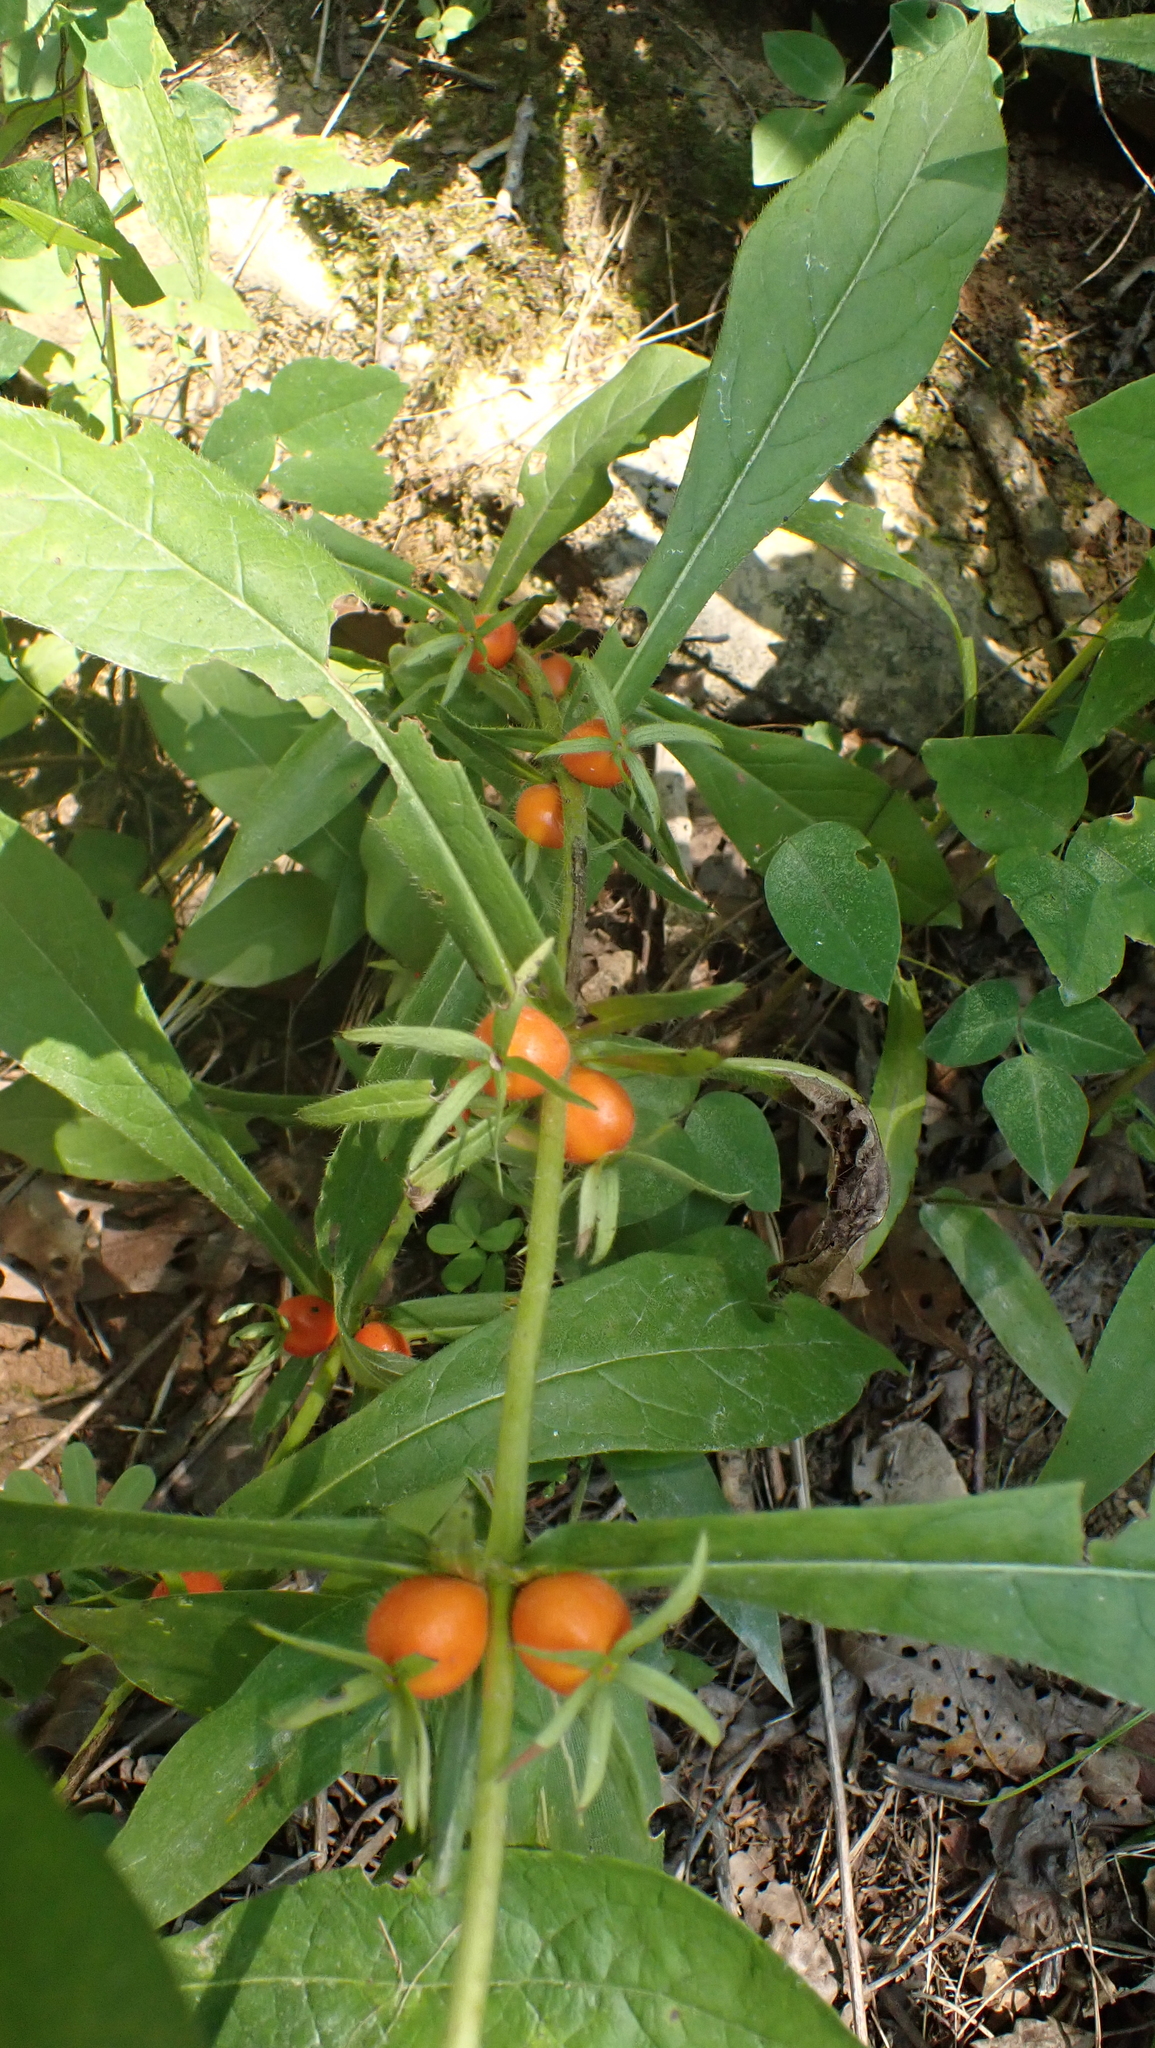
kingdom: Plantae
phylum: Tracheophyta
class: Magnoliopsida
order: Dipsacales
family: Caprifoliaceae
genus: Triosteum
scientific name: Triosteum aurantiacum
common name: Coffee tinker's-weed
